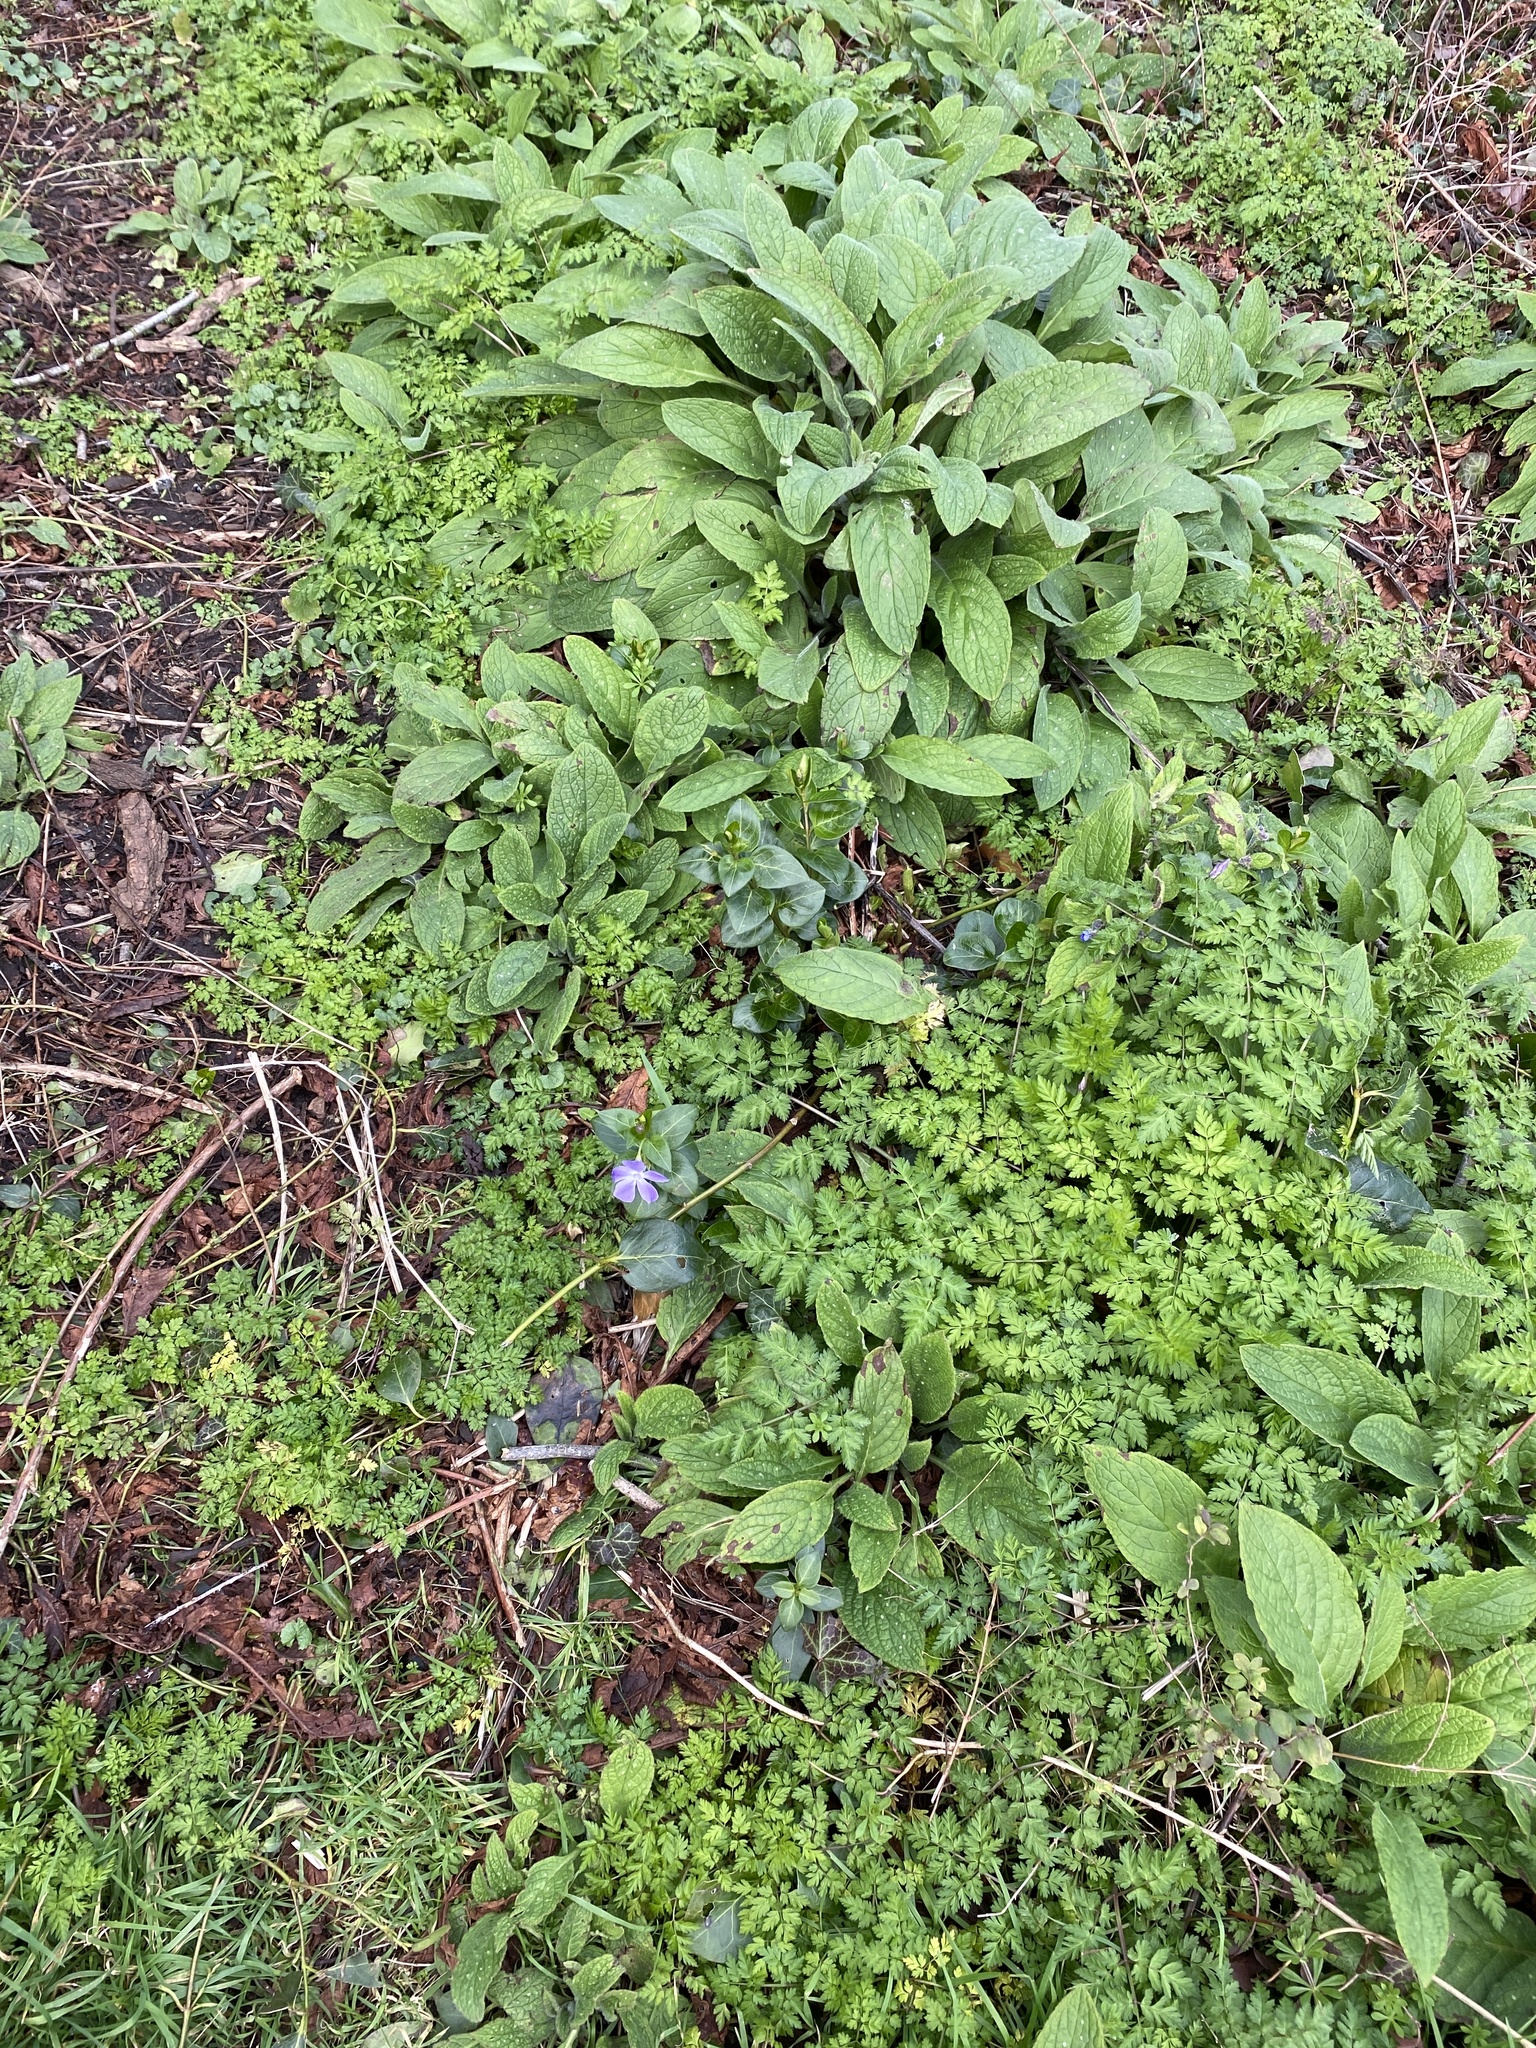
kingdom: Plantae
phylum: Tracheophyta
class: Magnoliopsida
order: Gentianales
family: Apocynaceae
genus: Vinca
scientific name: Vinca major
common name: Greater periwinkle
